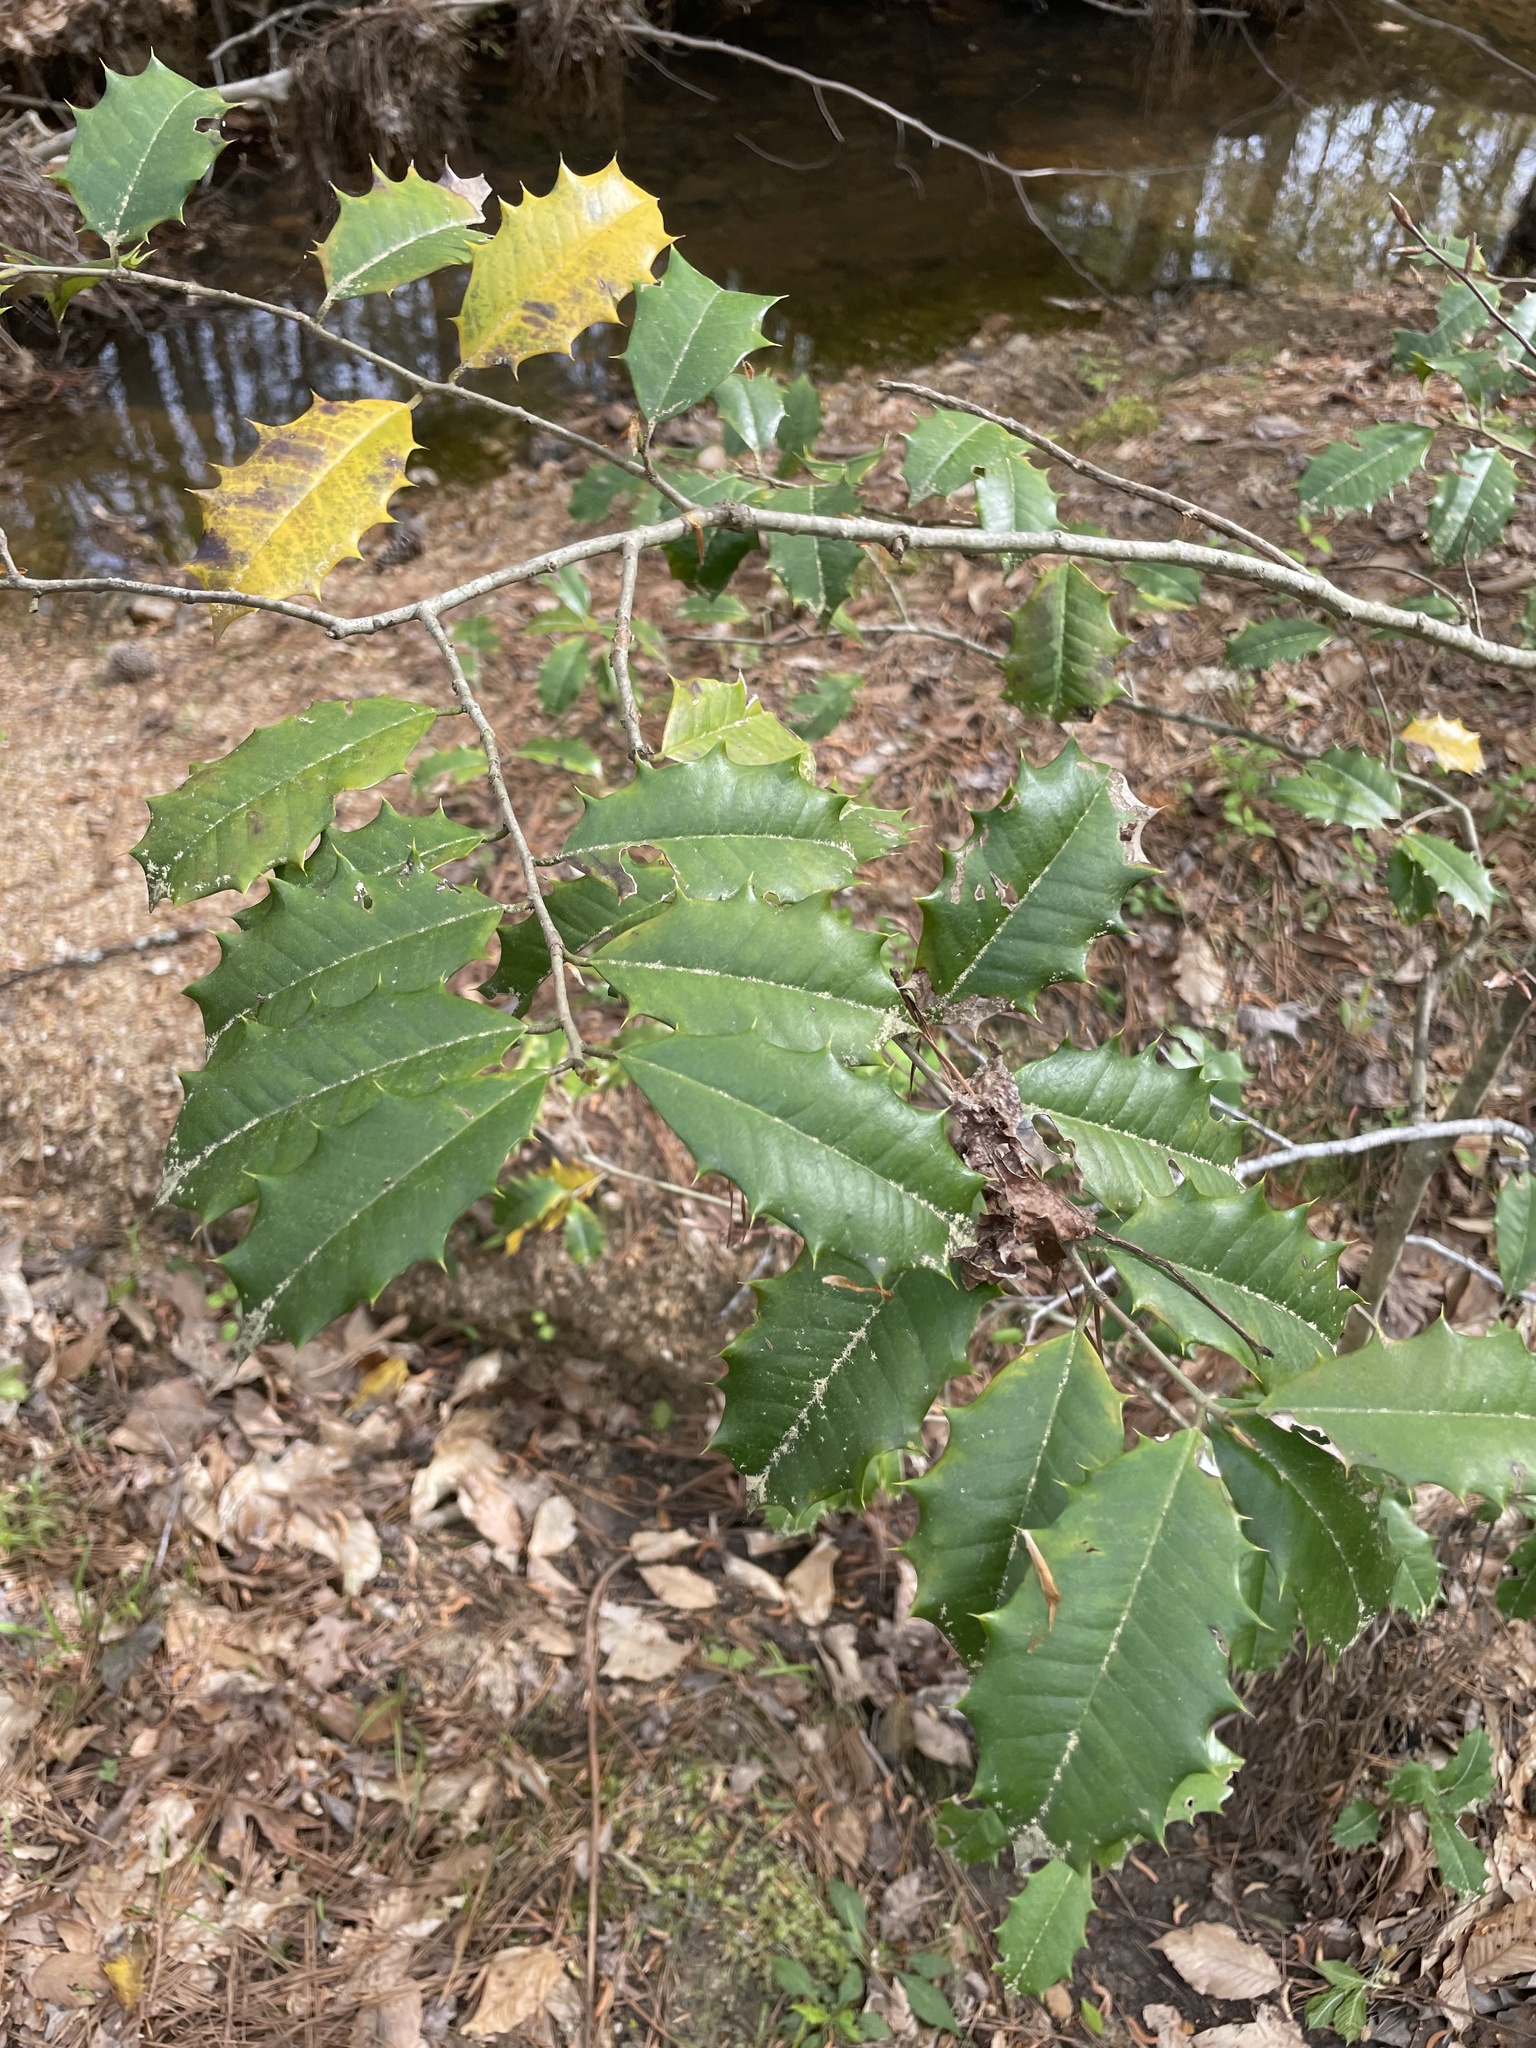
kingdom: Plantae
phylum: Tracheophyta
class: Magnoliopsida
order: Aquifoliales
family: Aquifoliaceae
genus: Ilex
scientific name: Ilex opaca
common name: American holly
